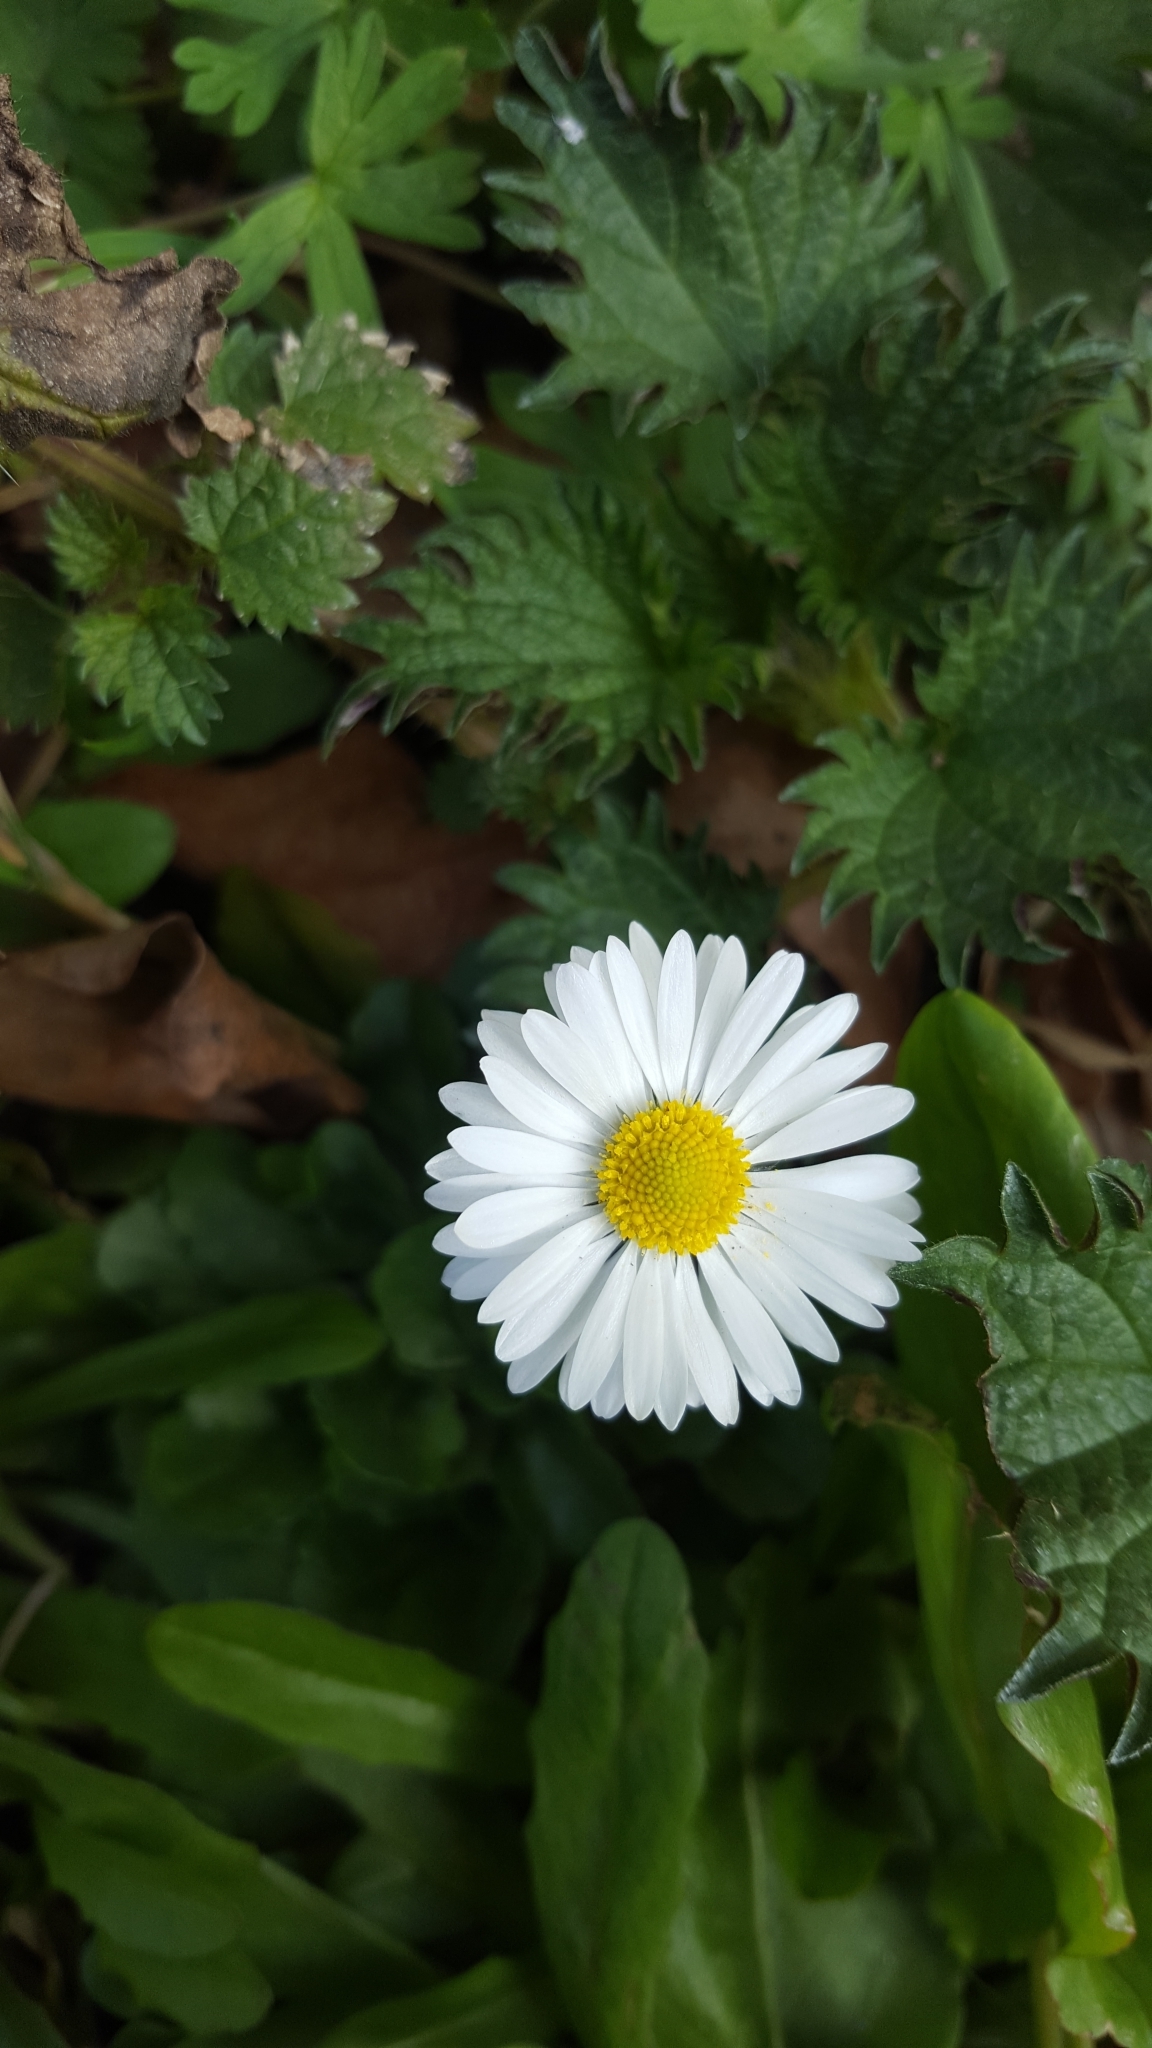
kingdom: Plantae
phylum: Tracheophyta
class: Magnoliopsida
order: Asterales
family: Asteraceae
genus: Bellis
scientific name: Bellis perennis
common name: Lawndaisy
